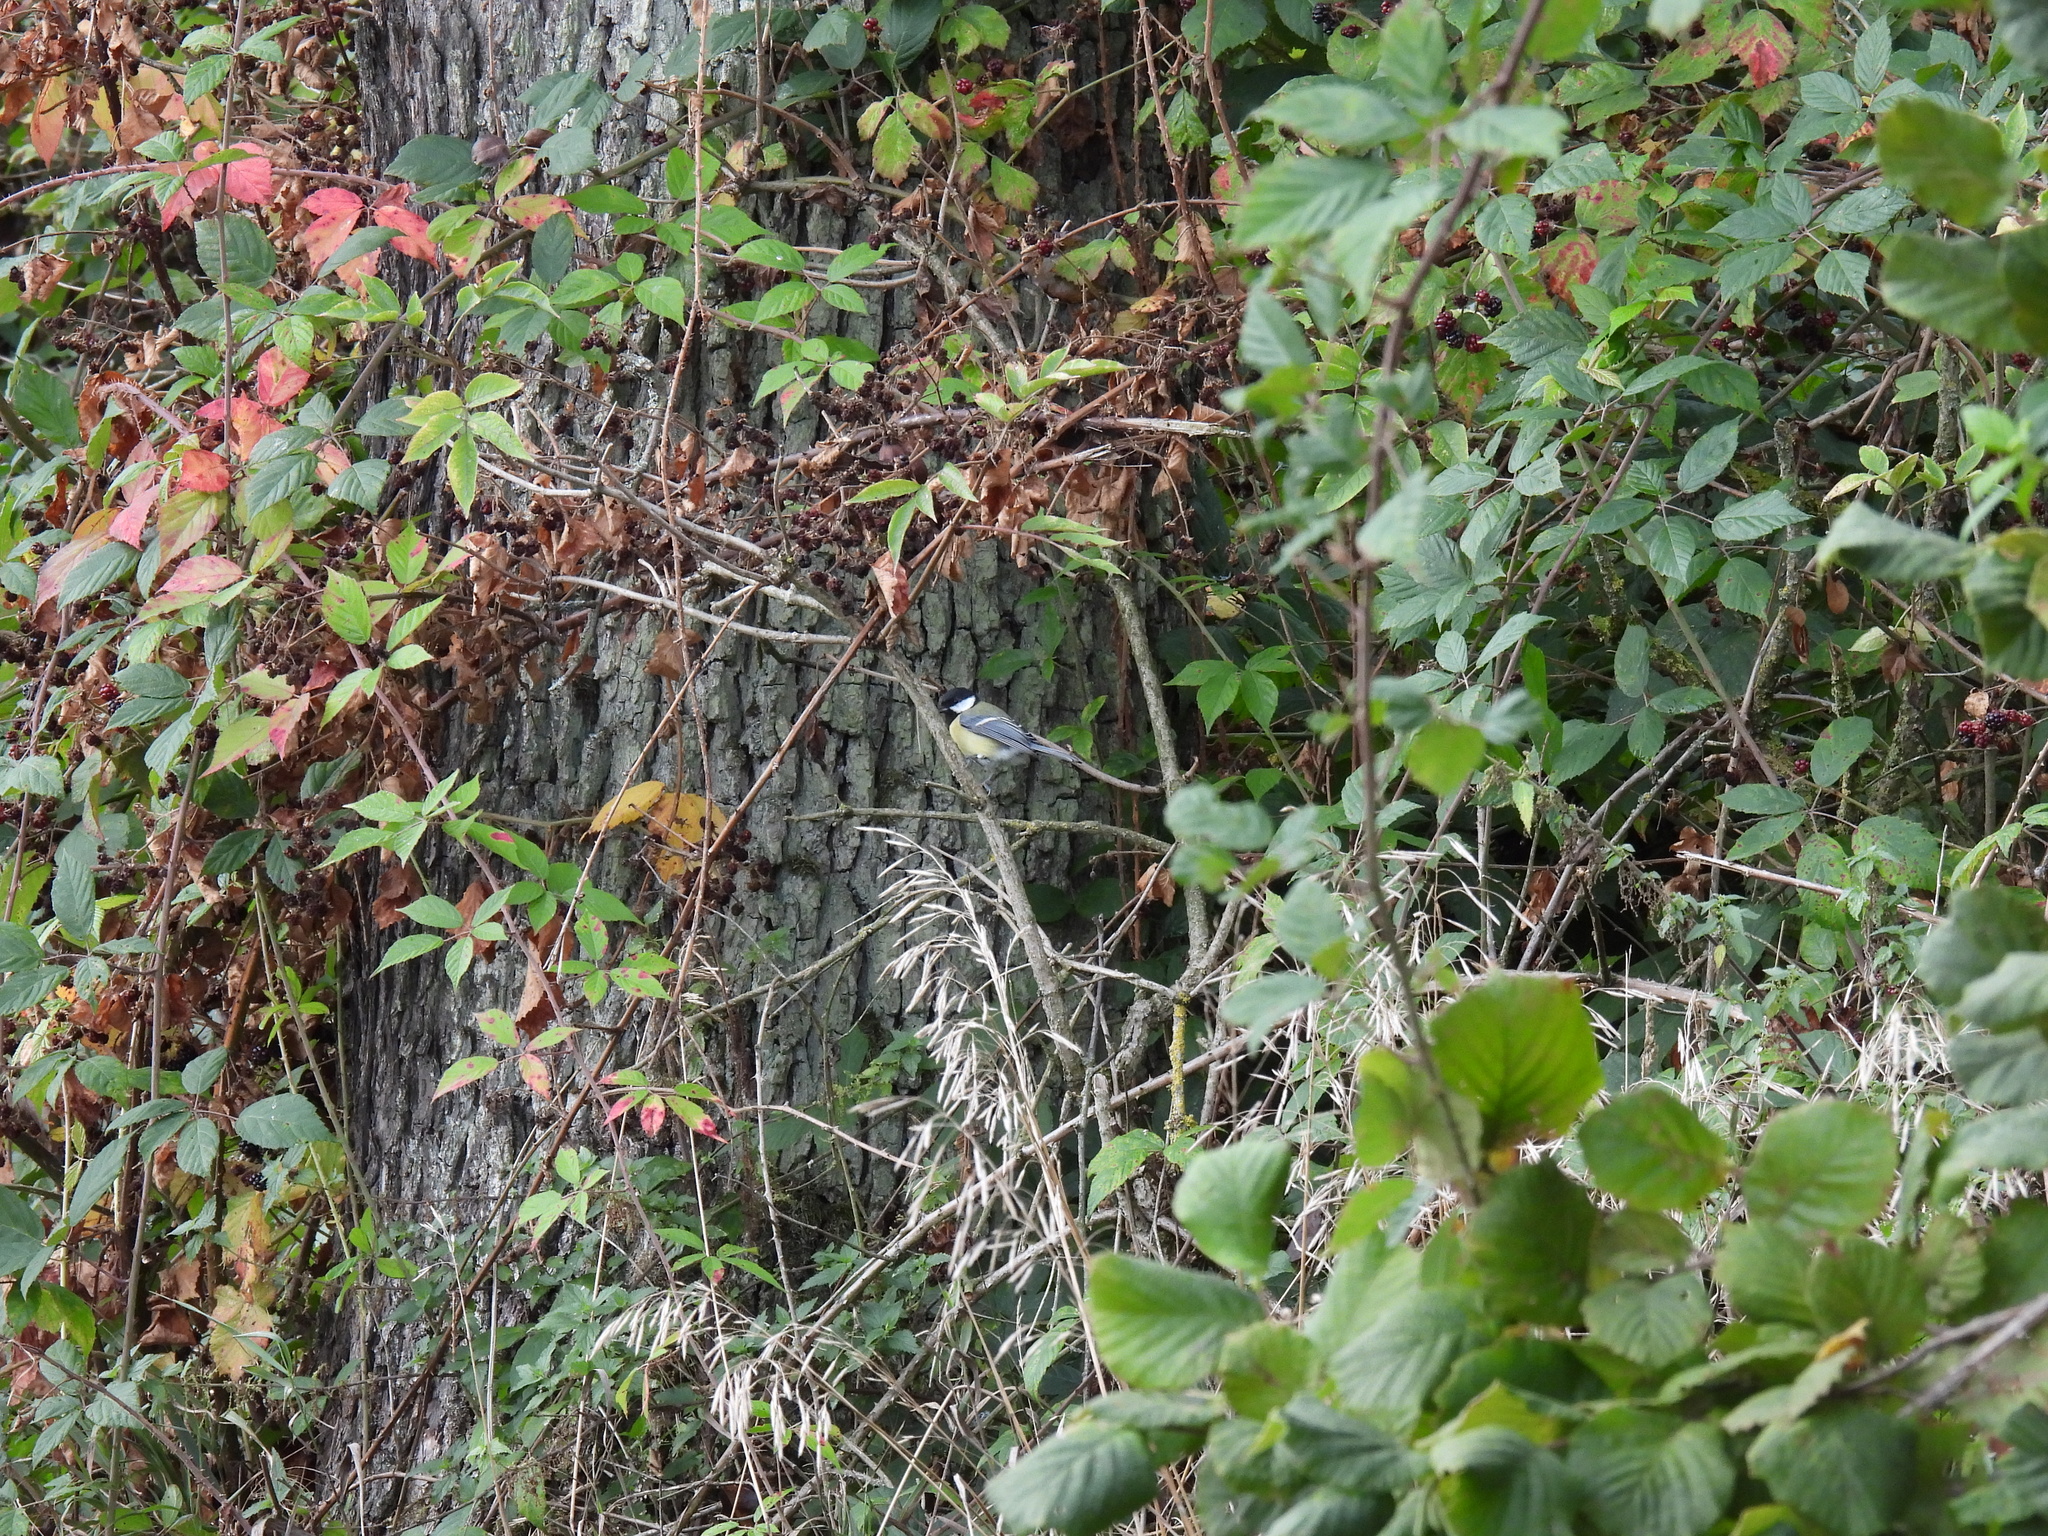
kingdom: Animalia
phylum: Chordata
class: Aves
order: Passeriformes
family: Paridae
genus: Parus
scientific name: Parus major
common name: Great tit
